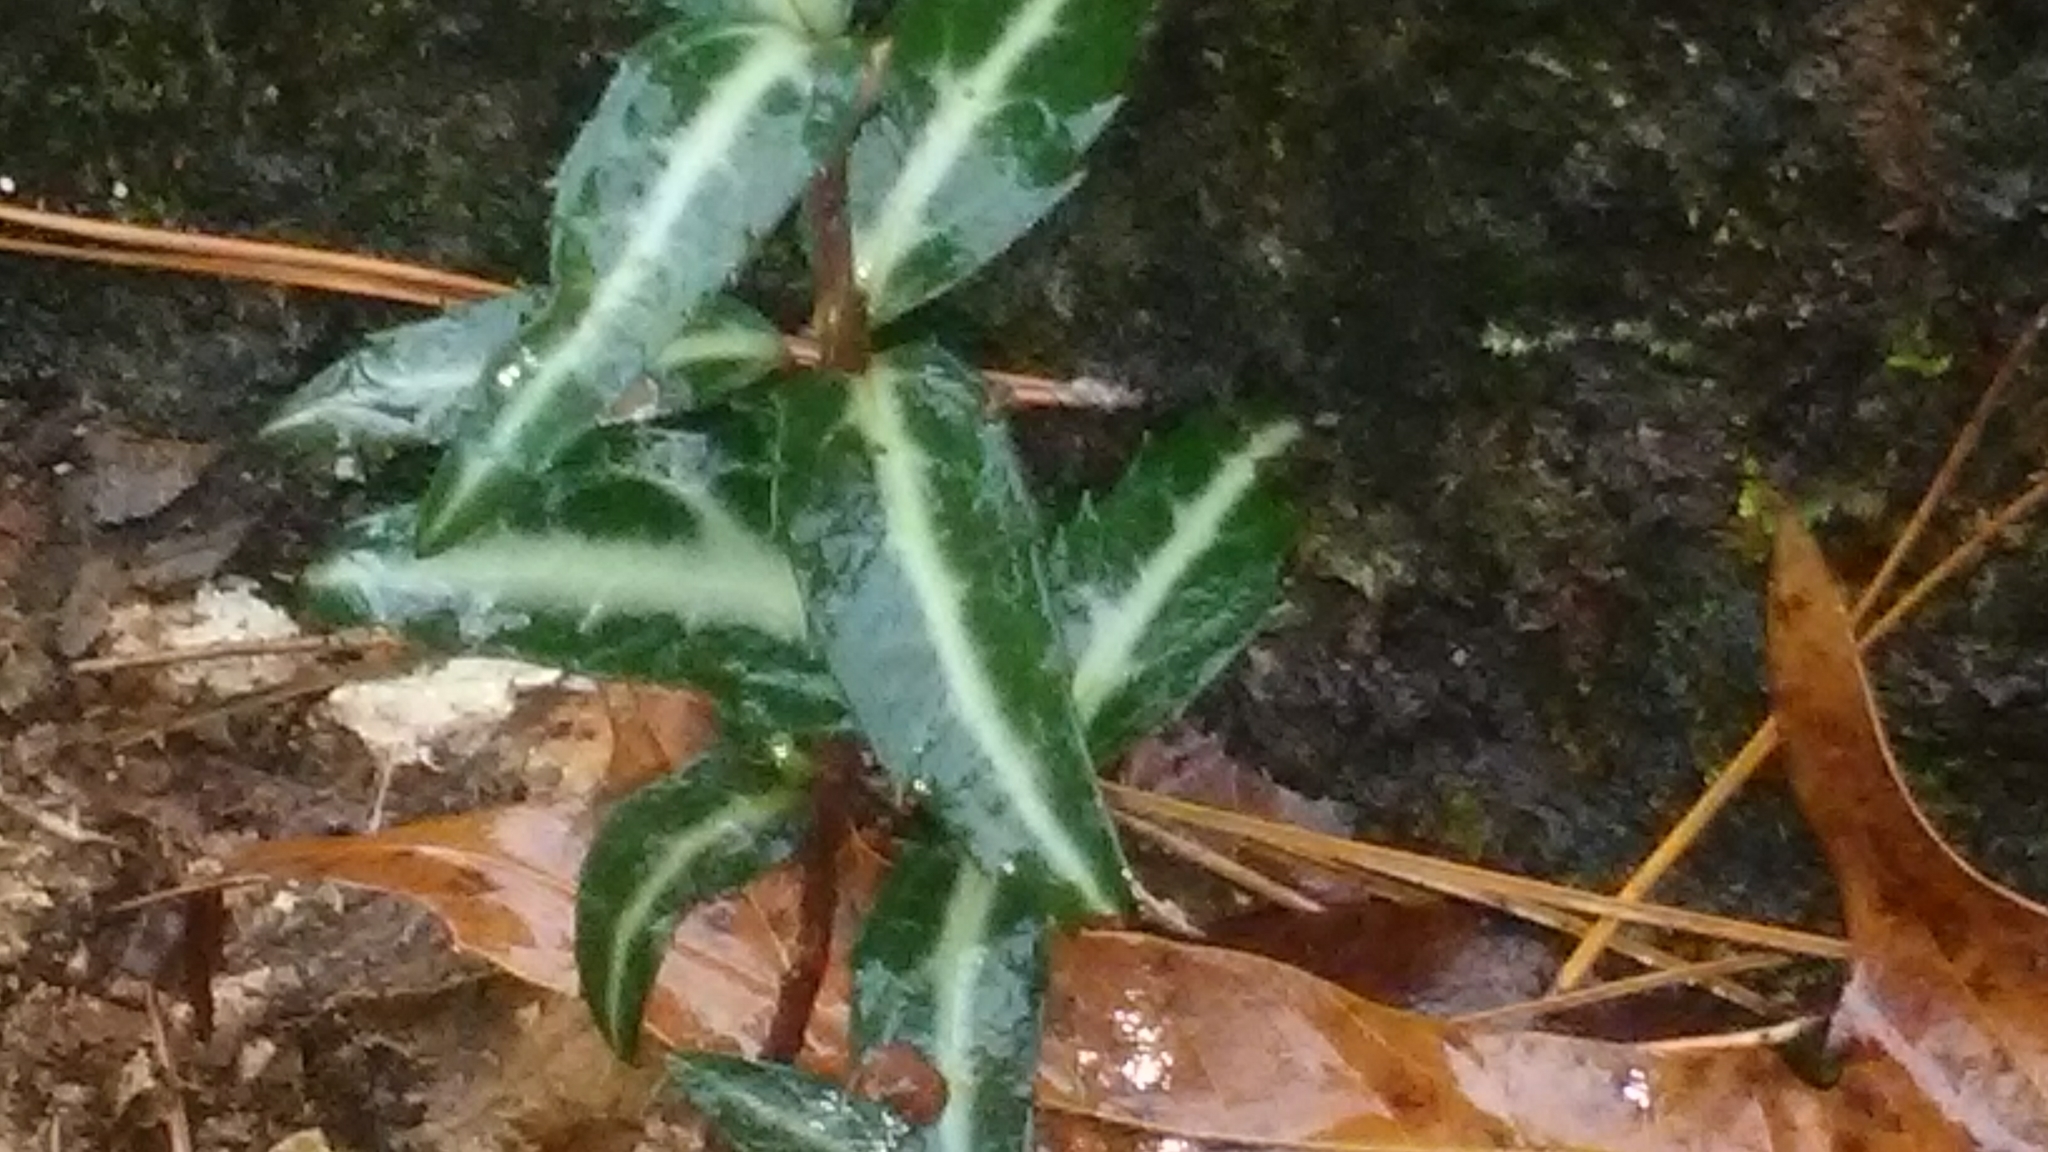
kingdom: Plantae
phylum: Tracheophyta
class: Magnoliopsida
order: Ericales
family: Ericaceae
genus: Chimaphila
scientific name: Chimaphila maculata
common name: Spotted pipsissewa
